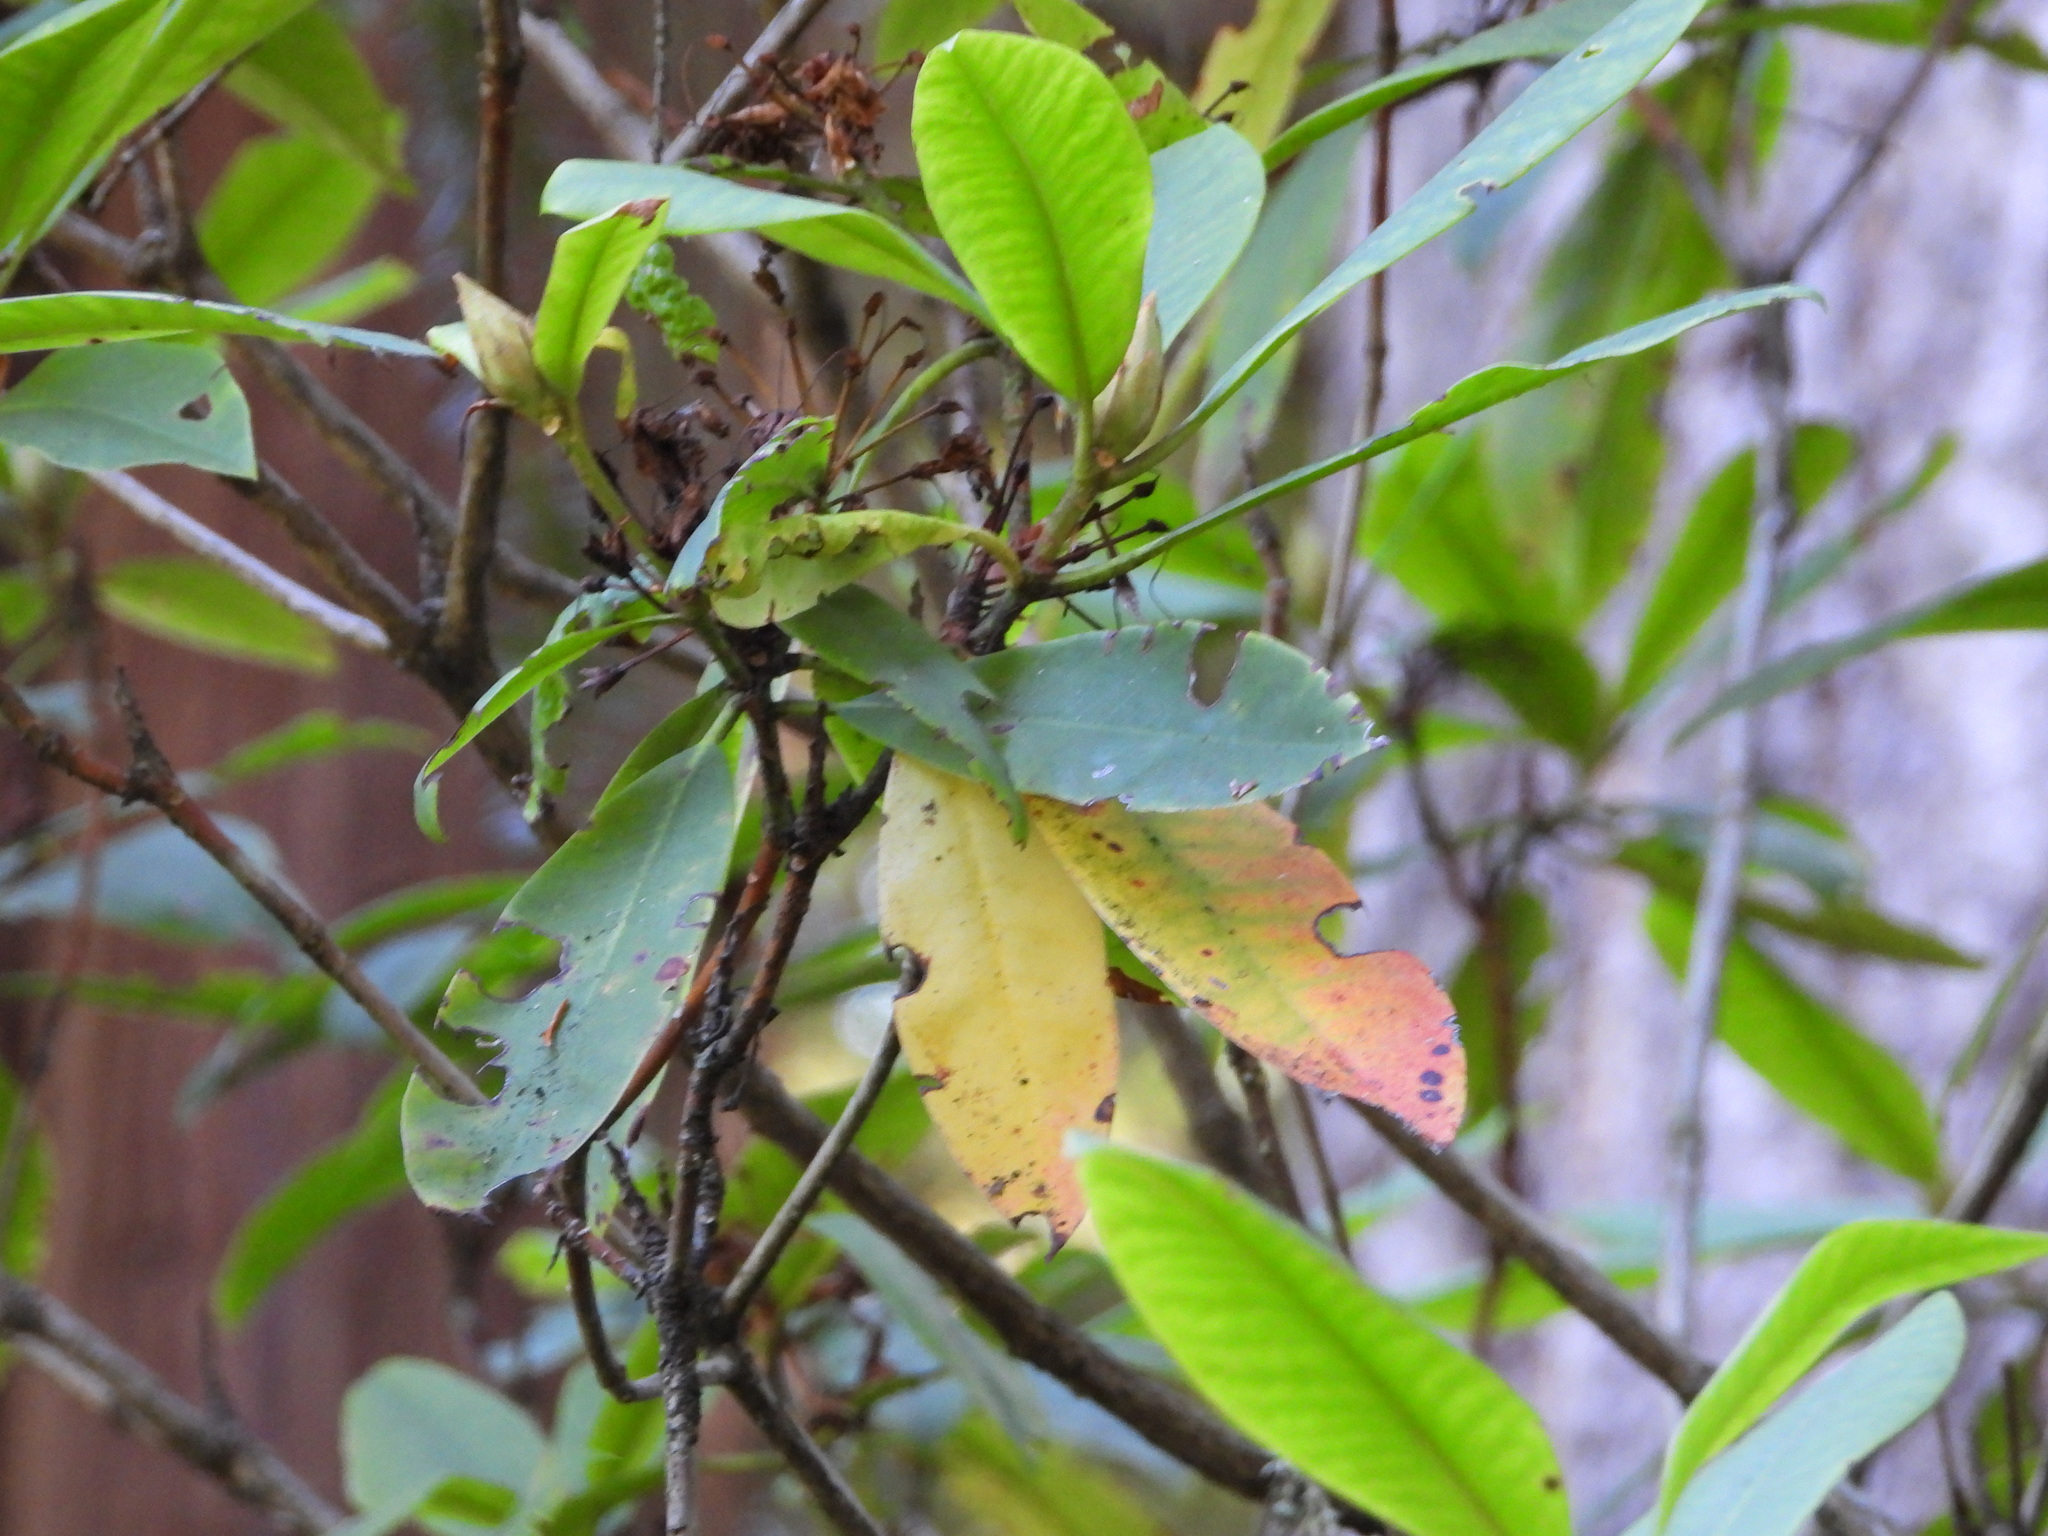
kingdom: Plantae
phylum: Tracheophyta
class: Magnoliopsida
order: Ericales
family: Ericaceae
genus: Rhododendron
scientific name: Rhododendron macrophyllum
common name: California rose bay
